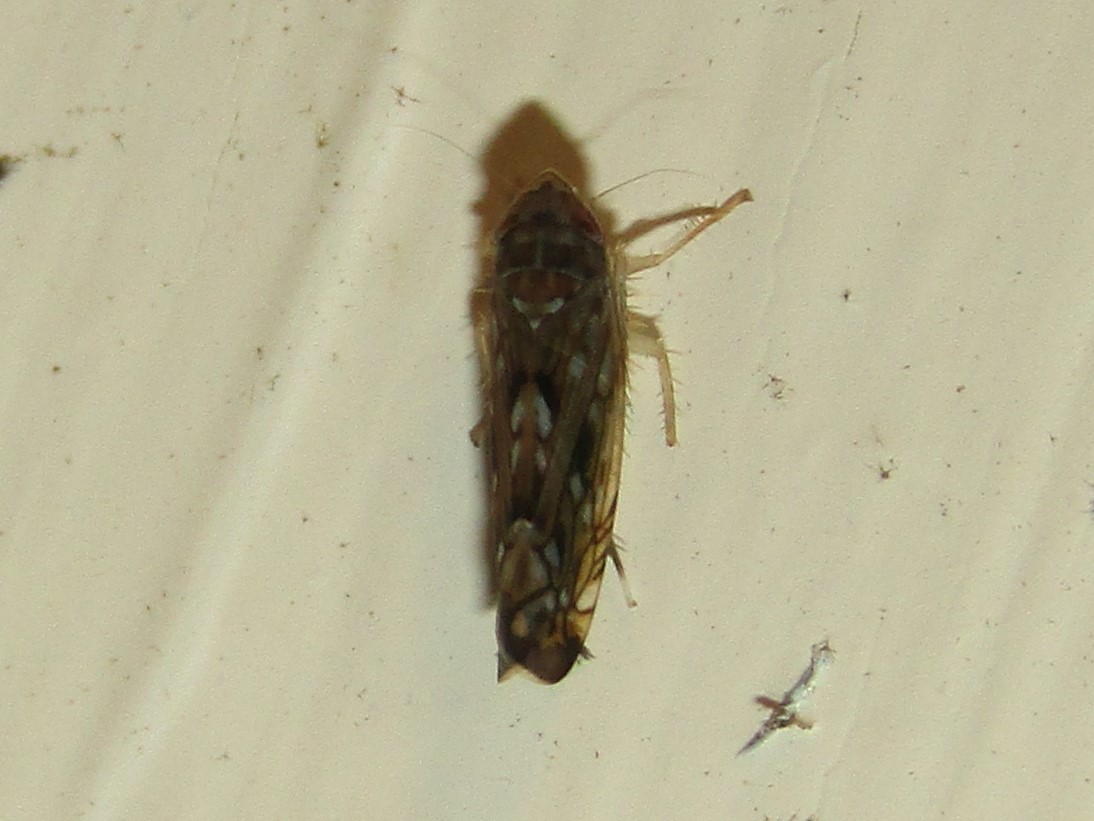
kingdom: Animalia
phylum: Arthropoda
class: Insecta
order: Hemiptera
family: Cicadellidae
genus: Scaphoideus
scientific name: Scaphoideus immistus
